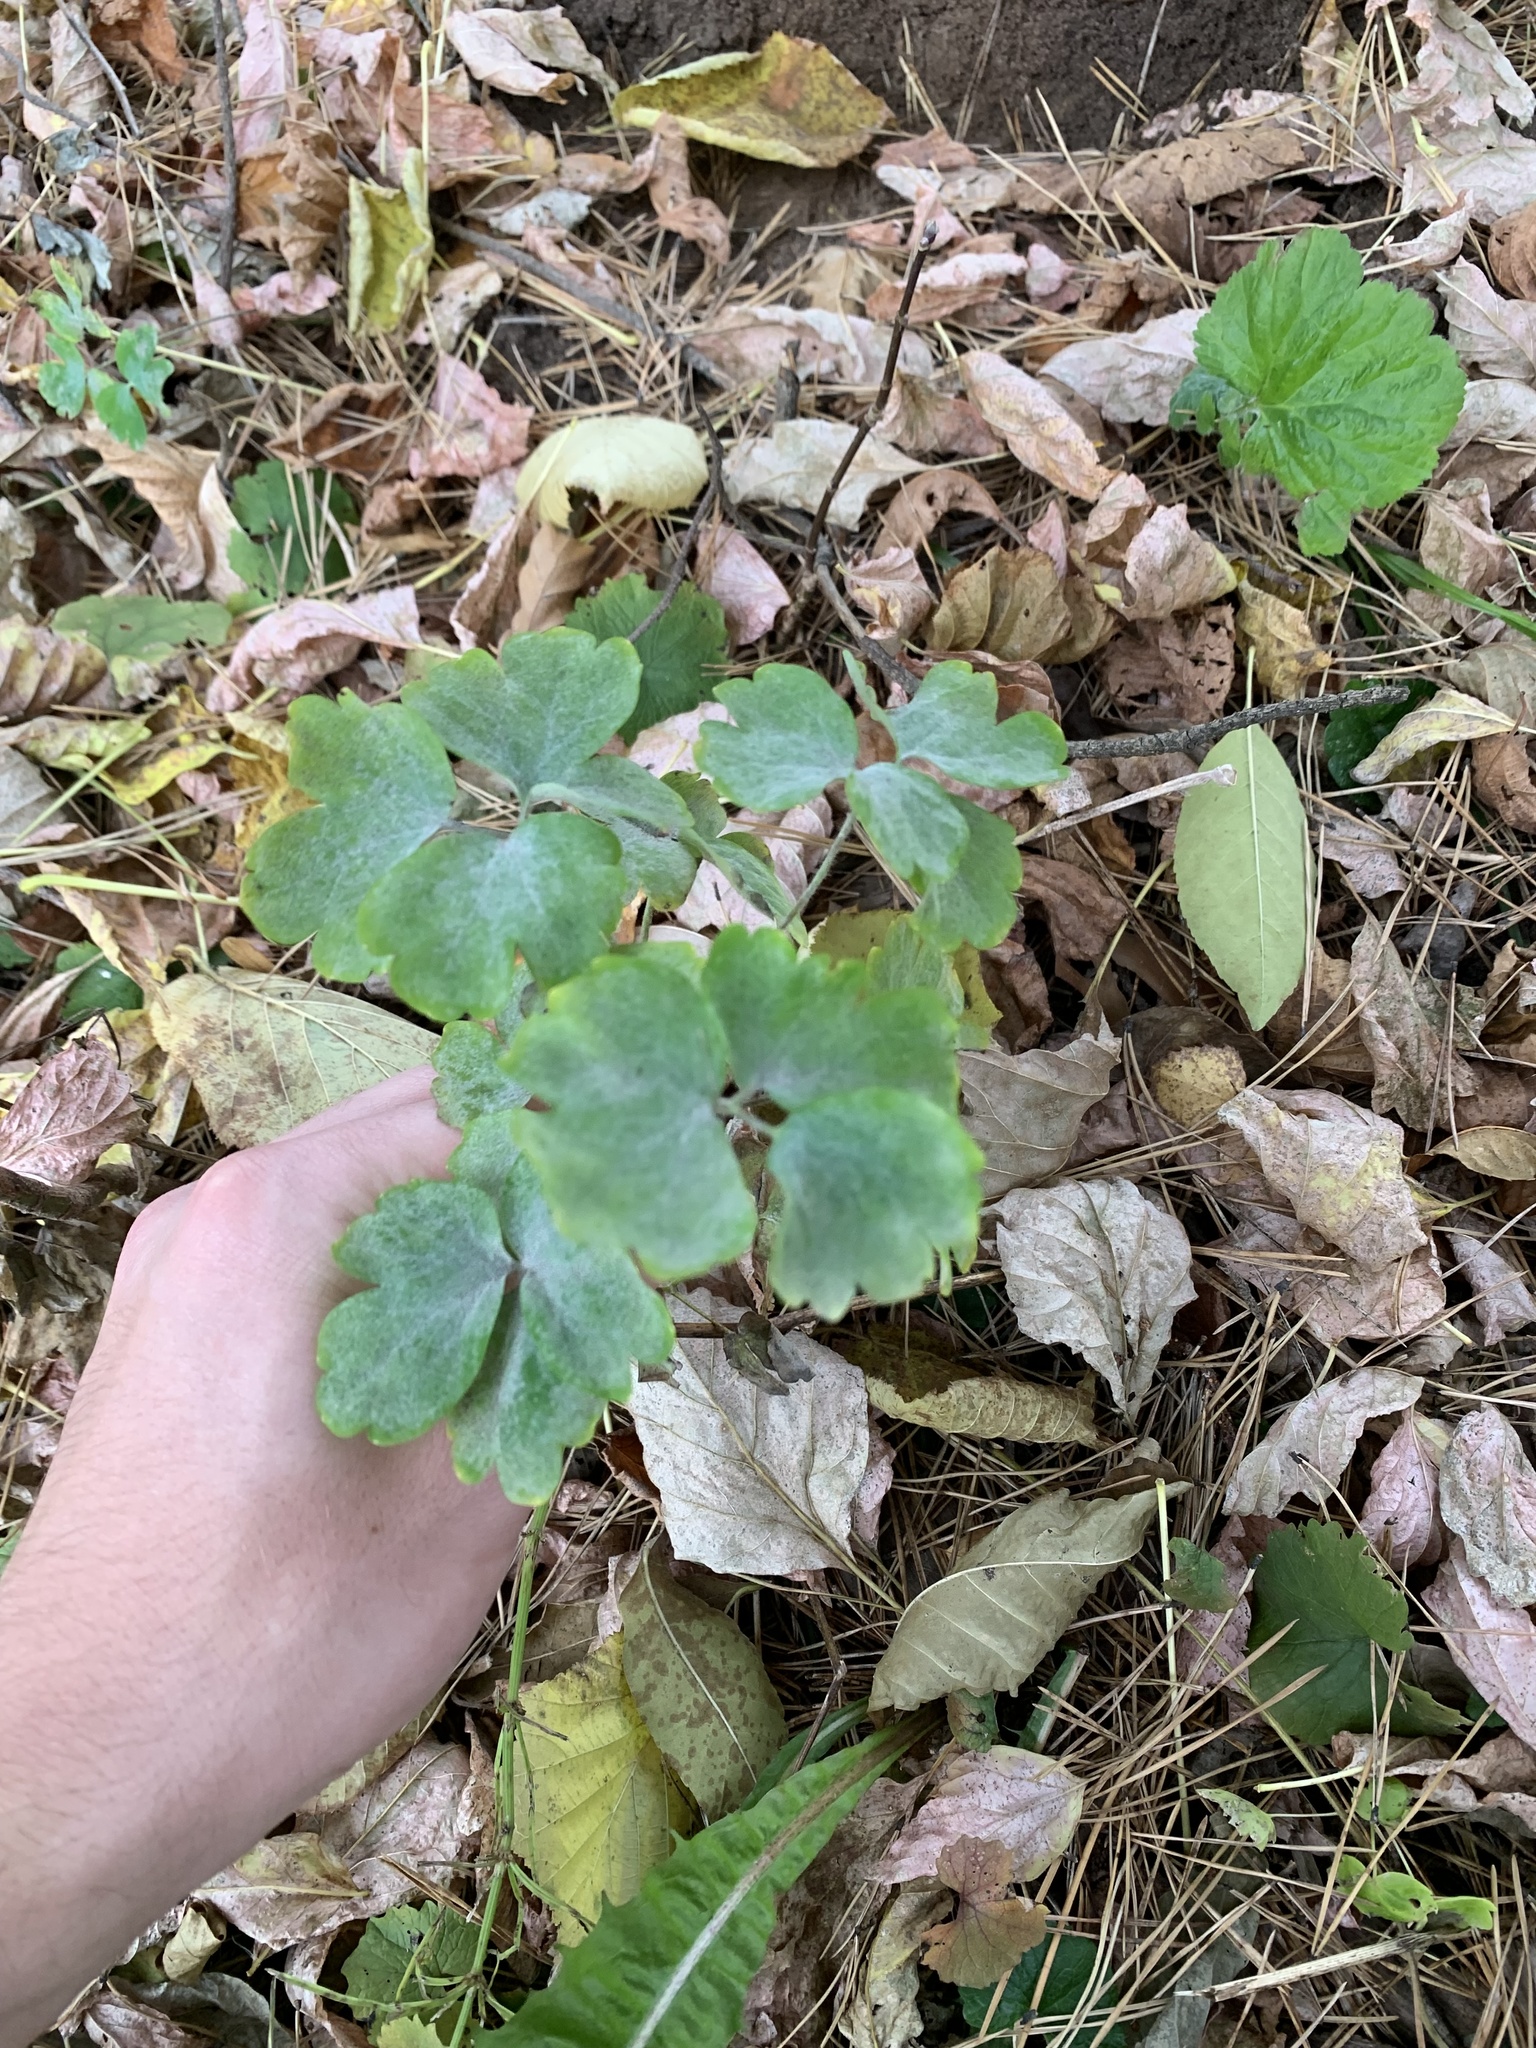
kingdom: Plantae
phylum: Tracheophyta
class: Magnoliopsida
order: Ranunculales
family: Ranunculaceae
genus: Aquilegia
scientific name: Aquilegia vulgaris
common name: Columbine
